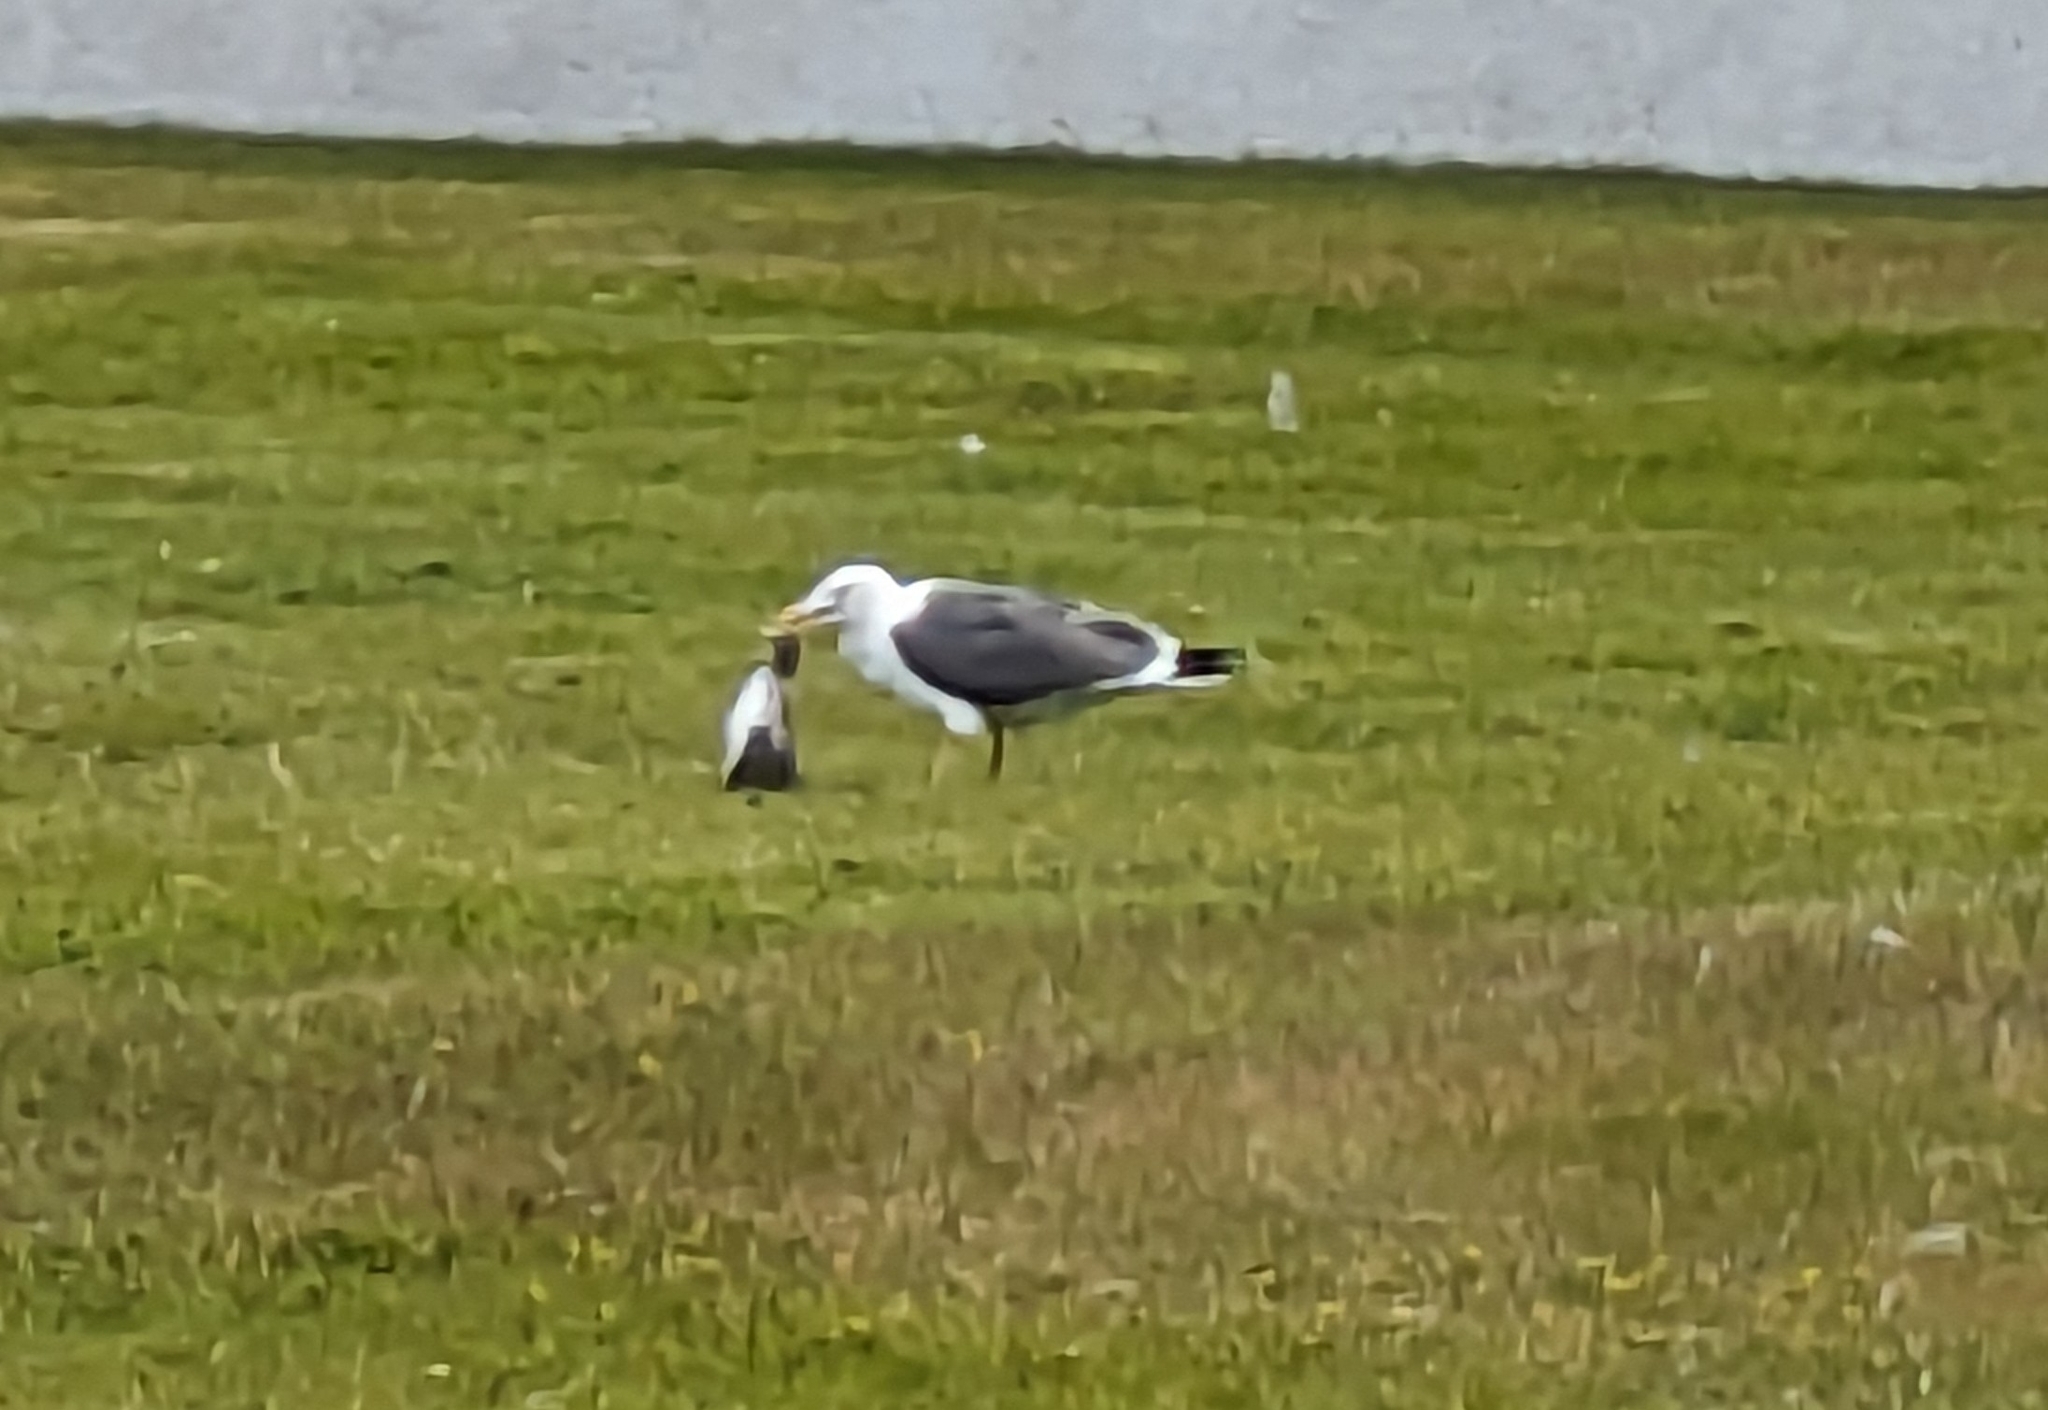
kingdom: Animalia
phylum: Chordata
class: Aves
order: Charadriiformes
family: Laridae
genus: Larus
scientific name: Larus fuscus
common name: Lesser black-backed gull
